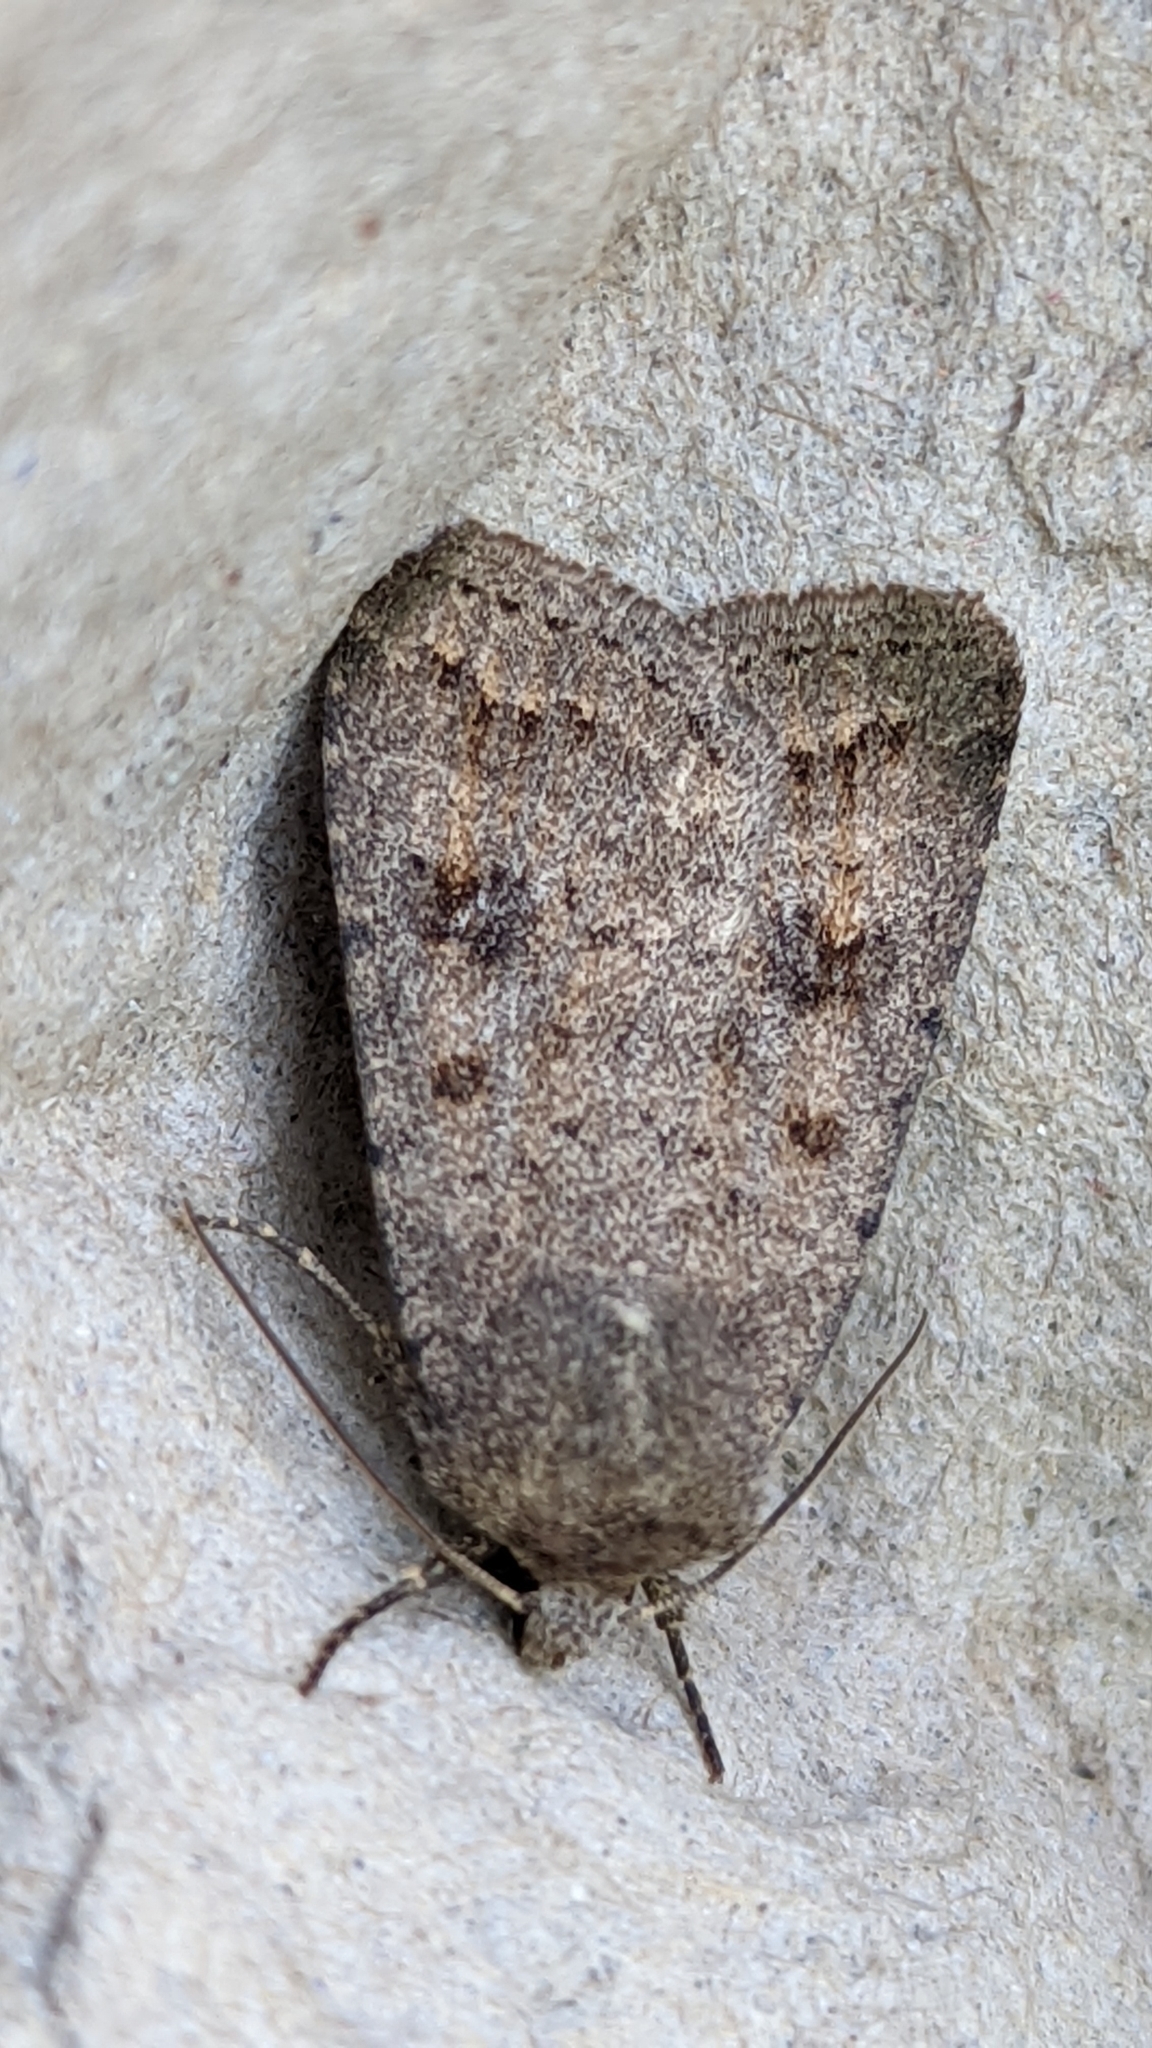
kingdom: Animalia
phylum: Arthropoda
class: Insecta
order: Lepidoptera
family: Noctuidae
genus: Caradrina
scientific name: Caradrina morpheus
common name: Mottled rustic
